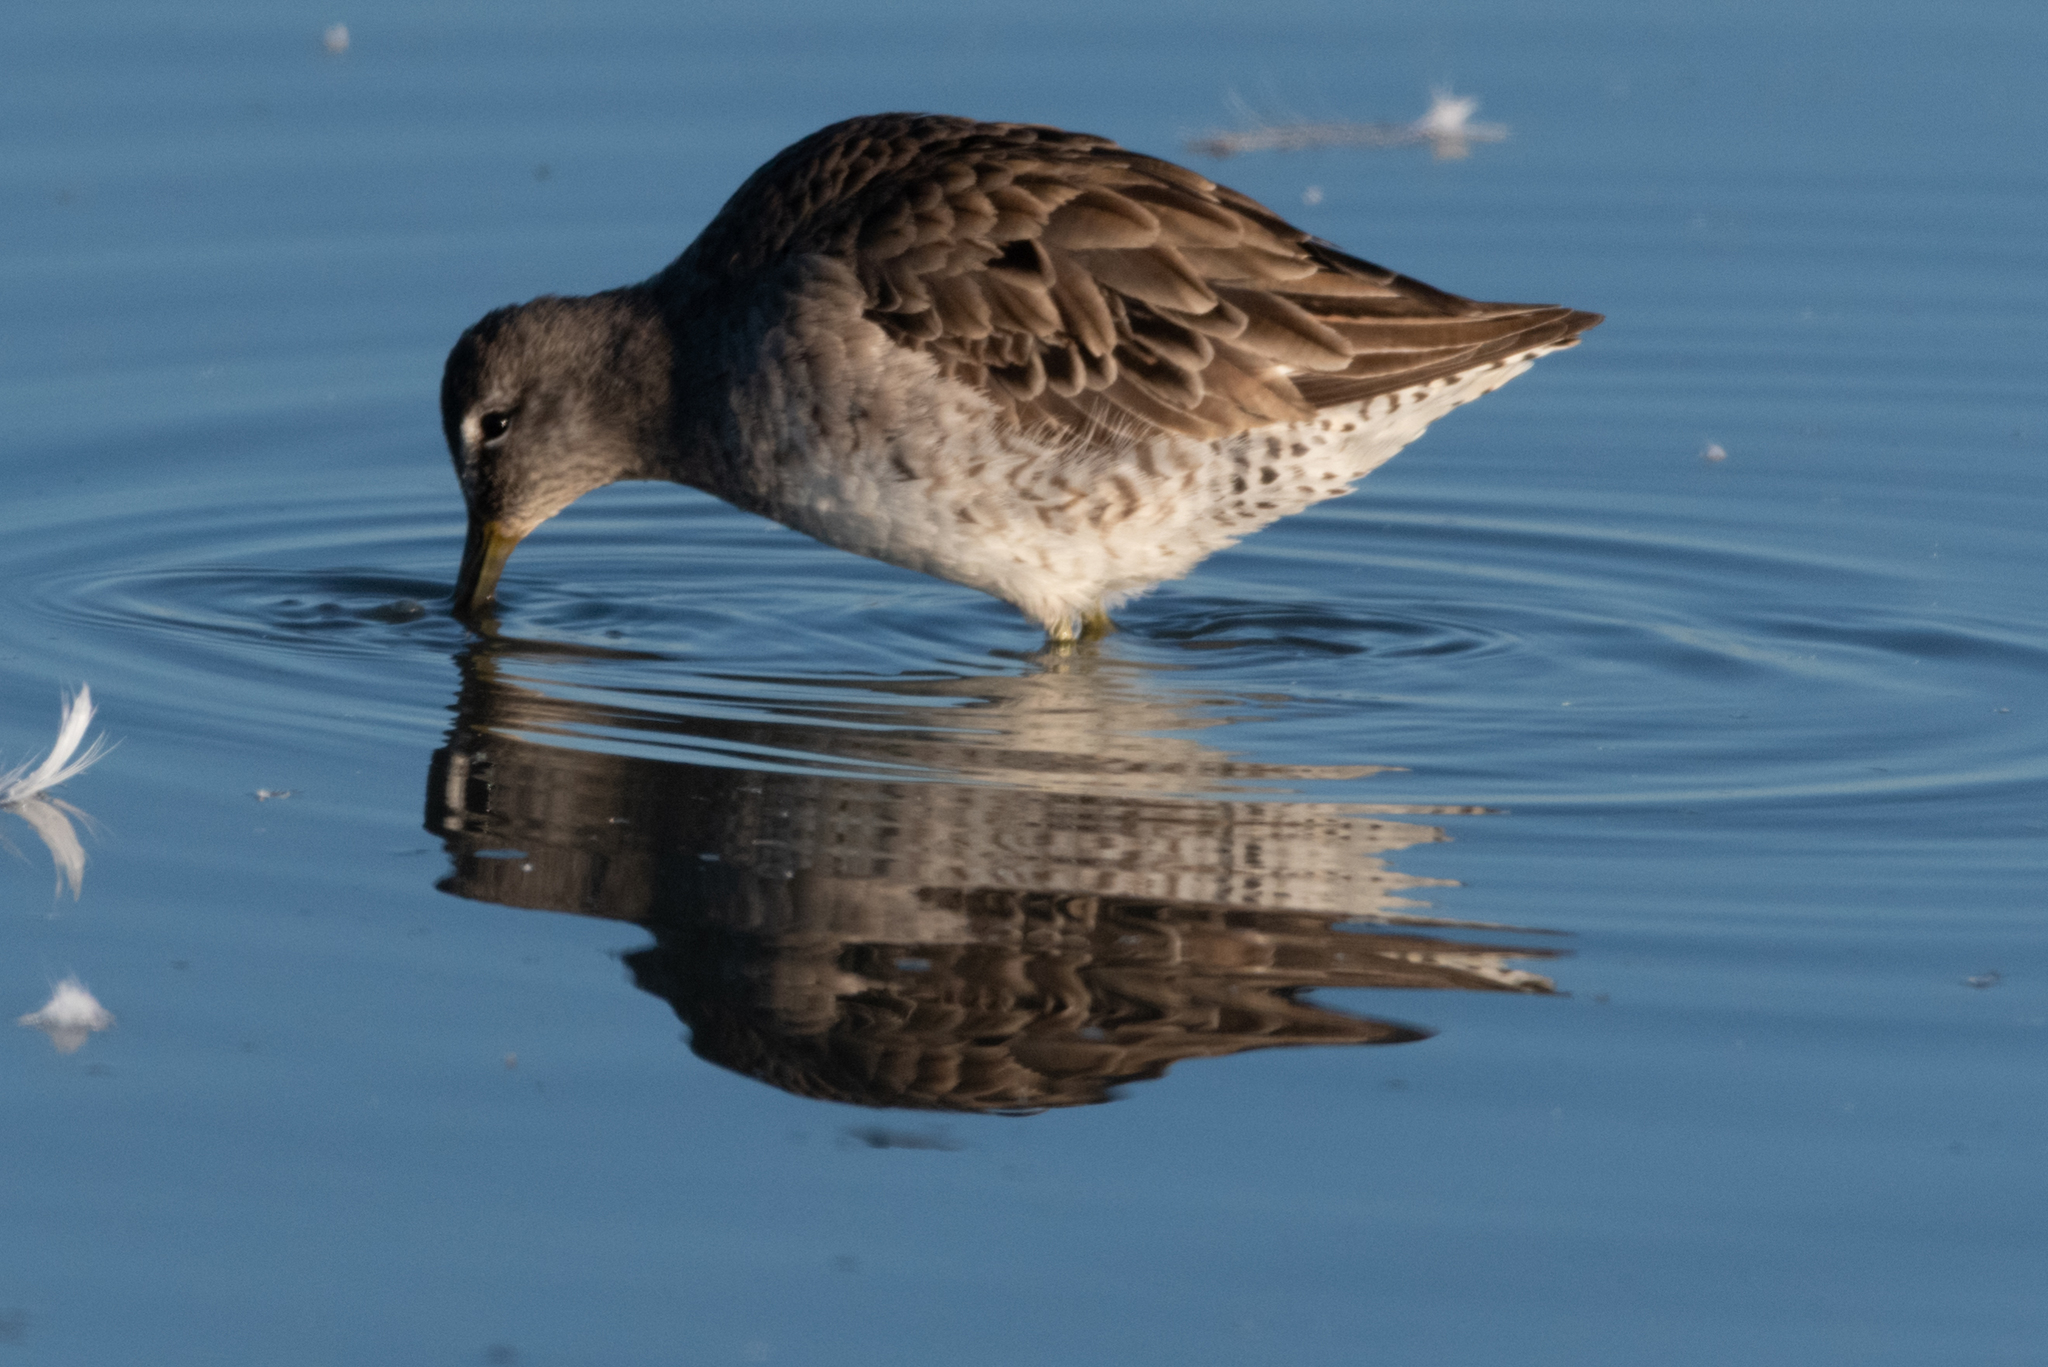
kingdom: Animalia
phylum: Chordata
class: Aves
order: Charadriiformes
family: Scolopacidae
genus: Limnodromus
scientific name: Limnodromus scolopaceus
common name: Long-billed dowitcher
